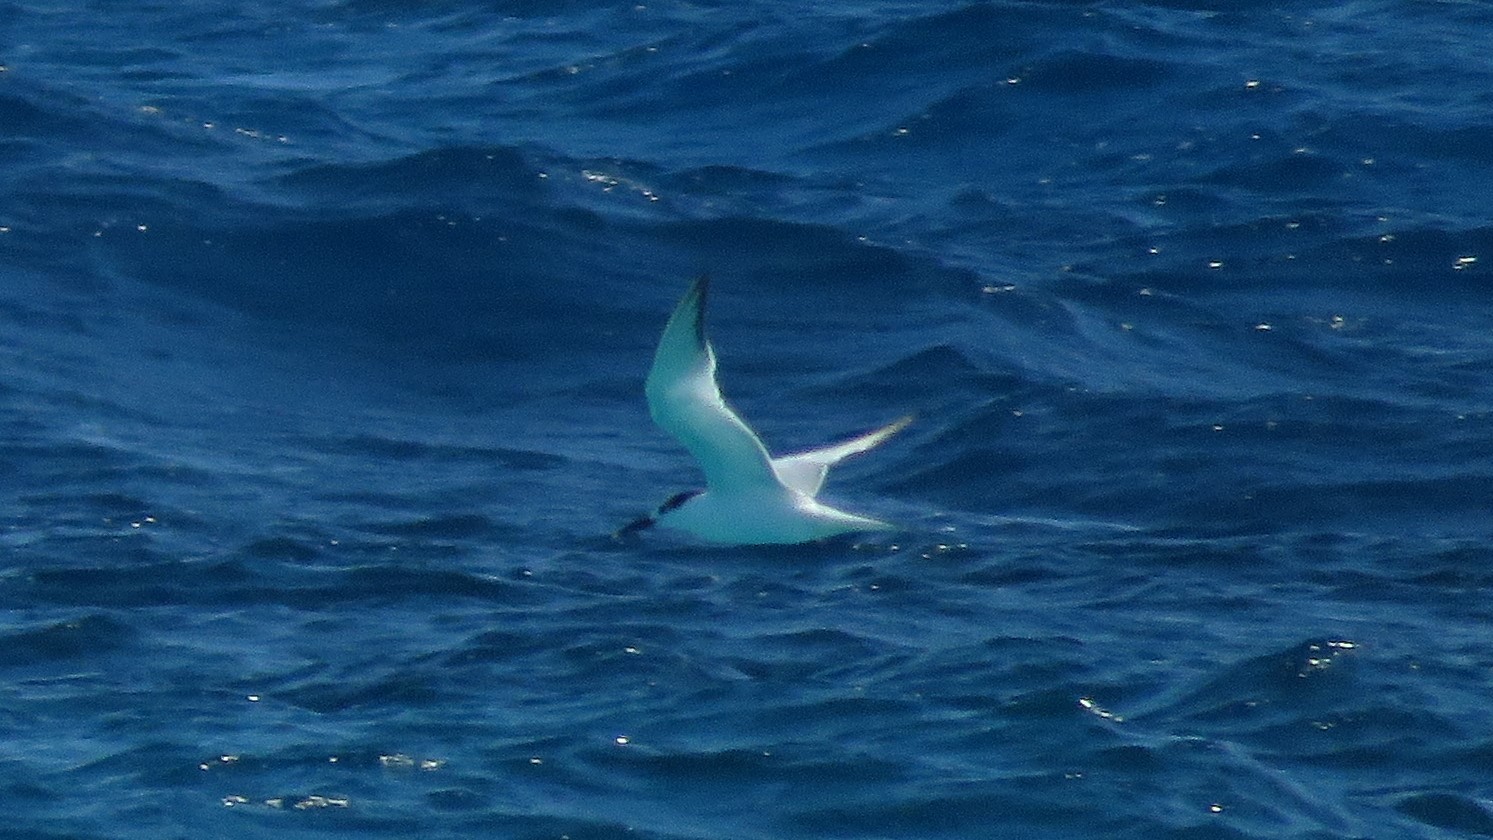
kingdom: Animalia
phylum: Chordata
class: Aves
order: Charadriiformes
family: Laridae
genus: Thalasseus
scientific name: Thalasseus sandvicensis
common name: Sandwich tern
